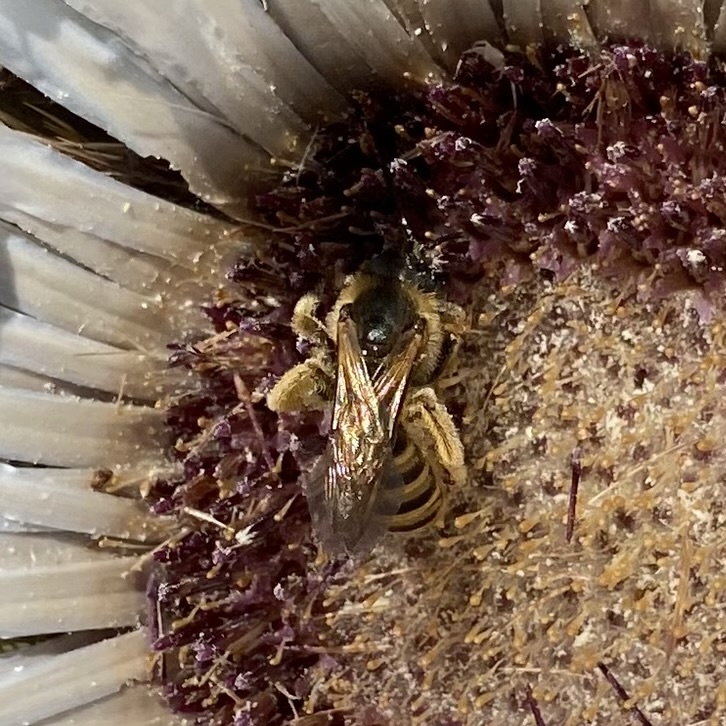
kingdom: Animalia
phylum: Arthropoda
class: Insecta
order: Hymenoptera
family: Halictidae
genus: Halictus
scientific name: Halictus scabiosae
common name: Great banded furrow bee
